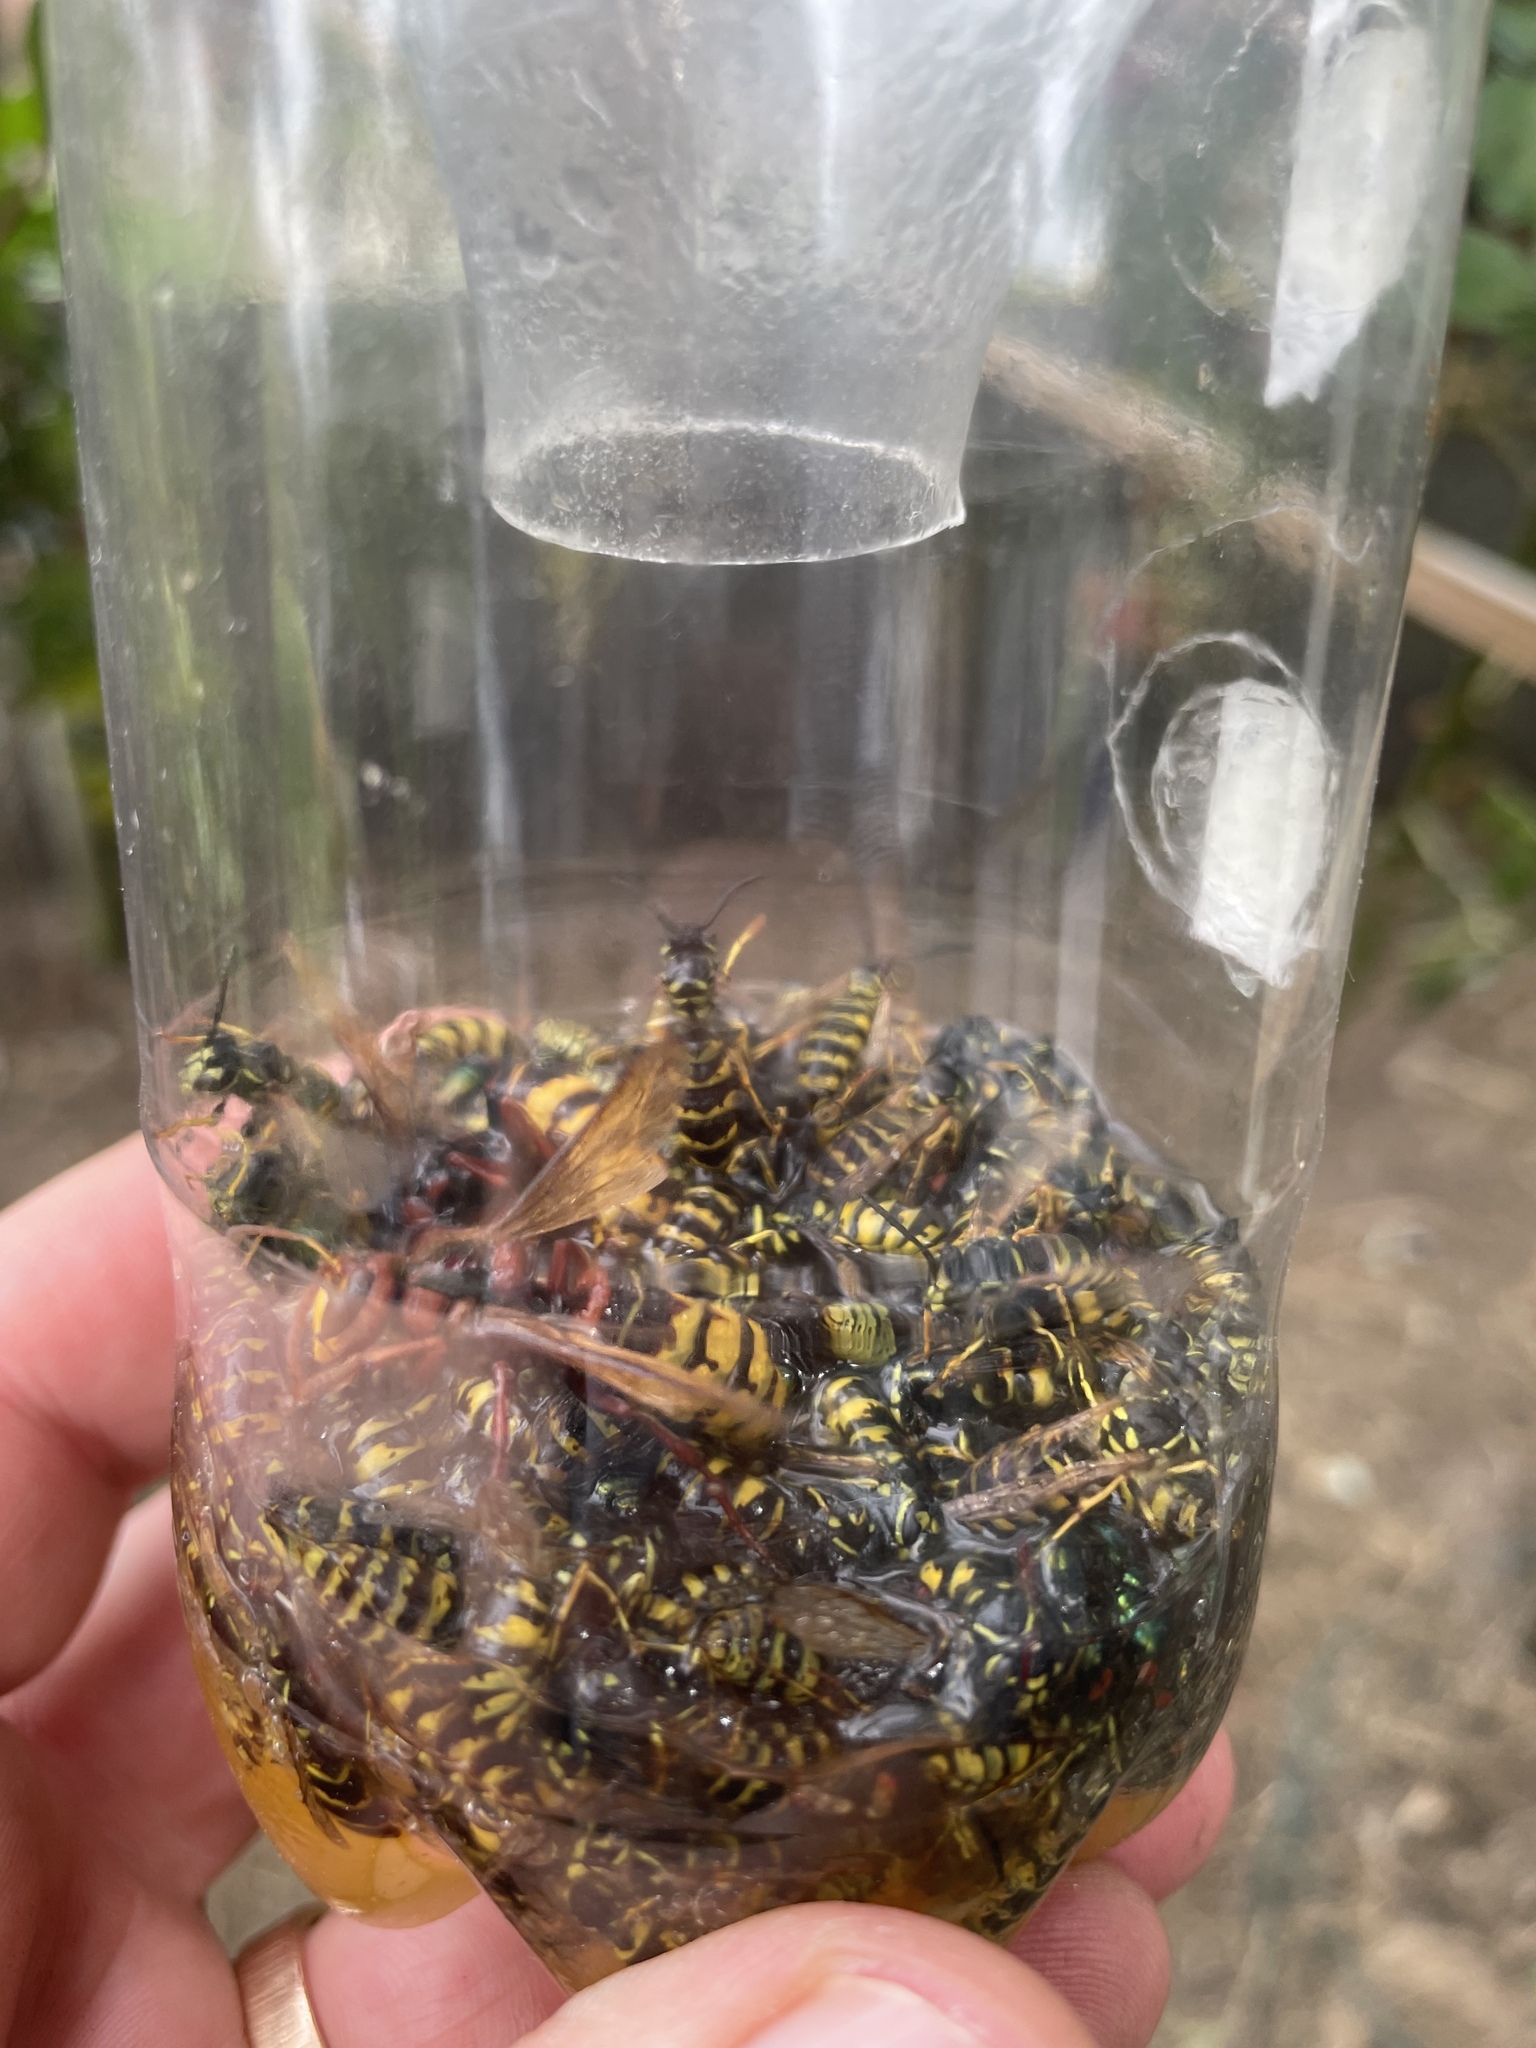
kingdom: Animalia
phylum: Arthropoda
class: Insecta
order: Hymenoptera
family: Vespidae
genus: Vespa
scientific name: Vespa crabro
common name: Hornet
